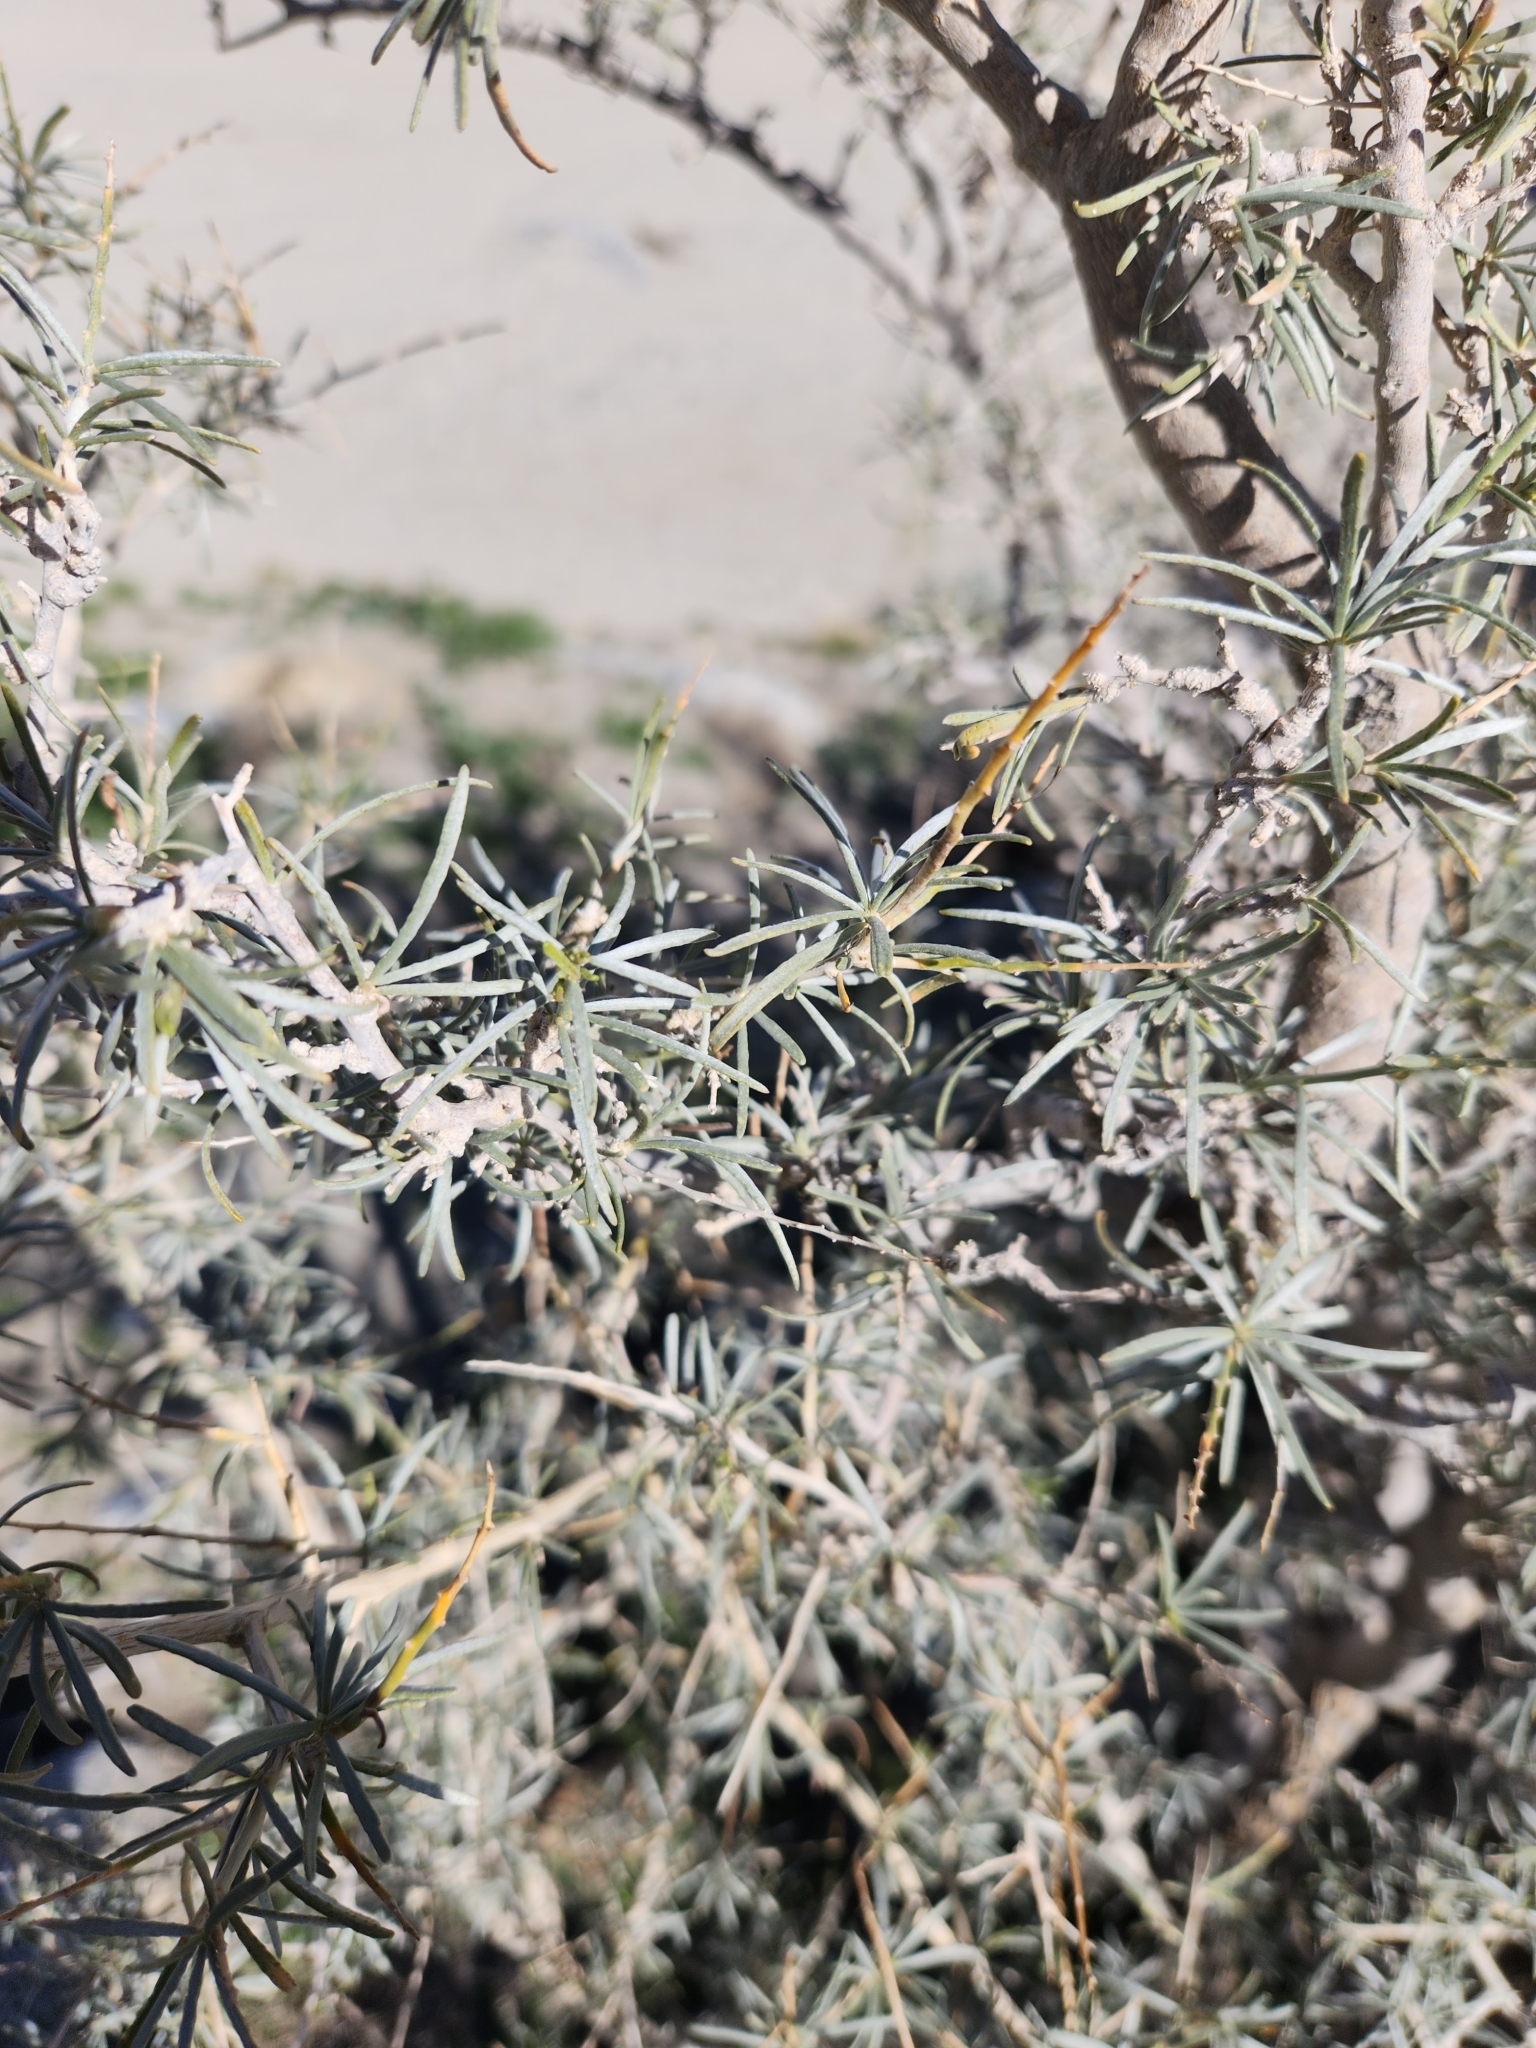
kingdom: Plantae
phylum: Tracheophyta
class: Magnoliopsida
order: Fabales
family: Fabaceae
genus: Psorothamnus
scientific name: Psorothamnus schottii
